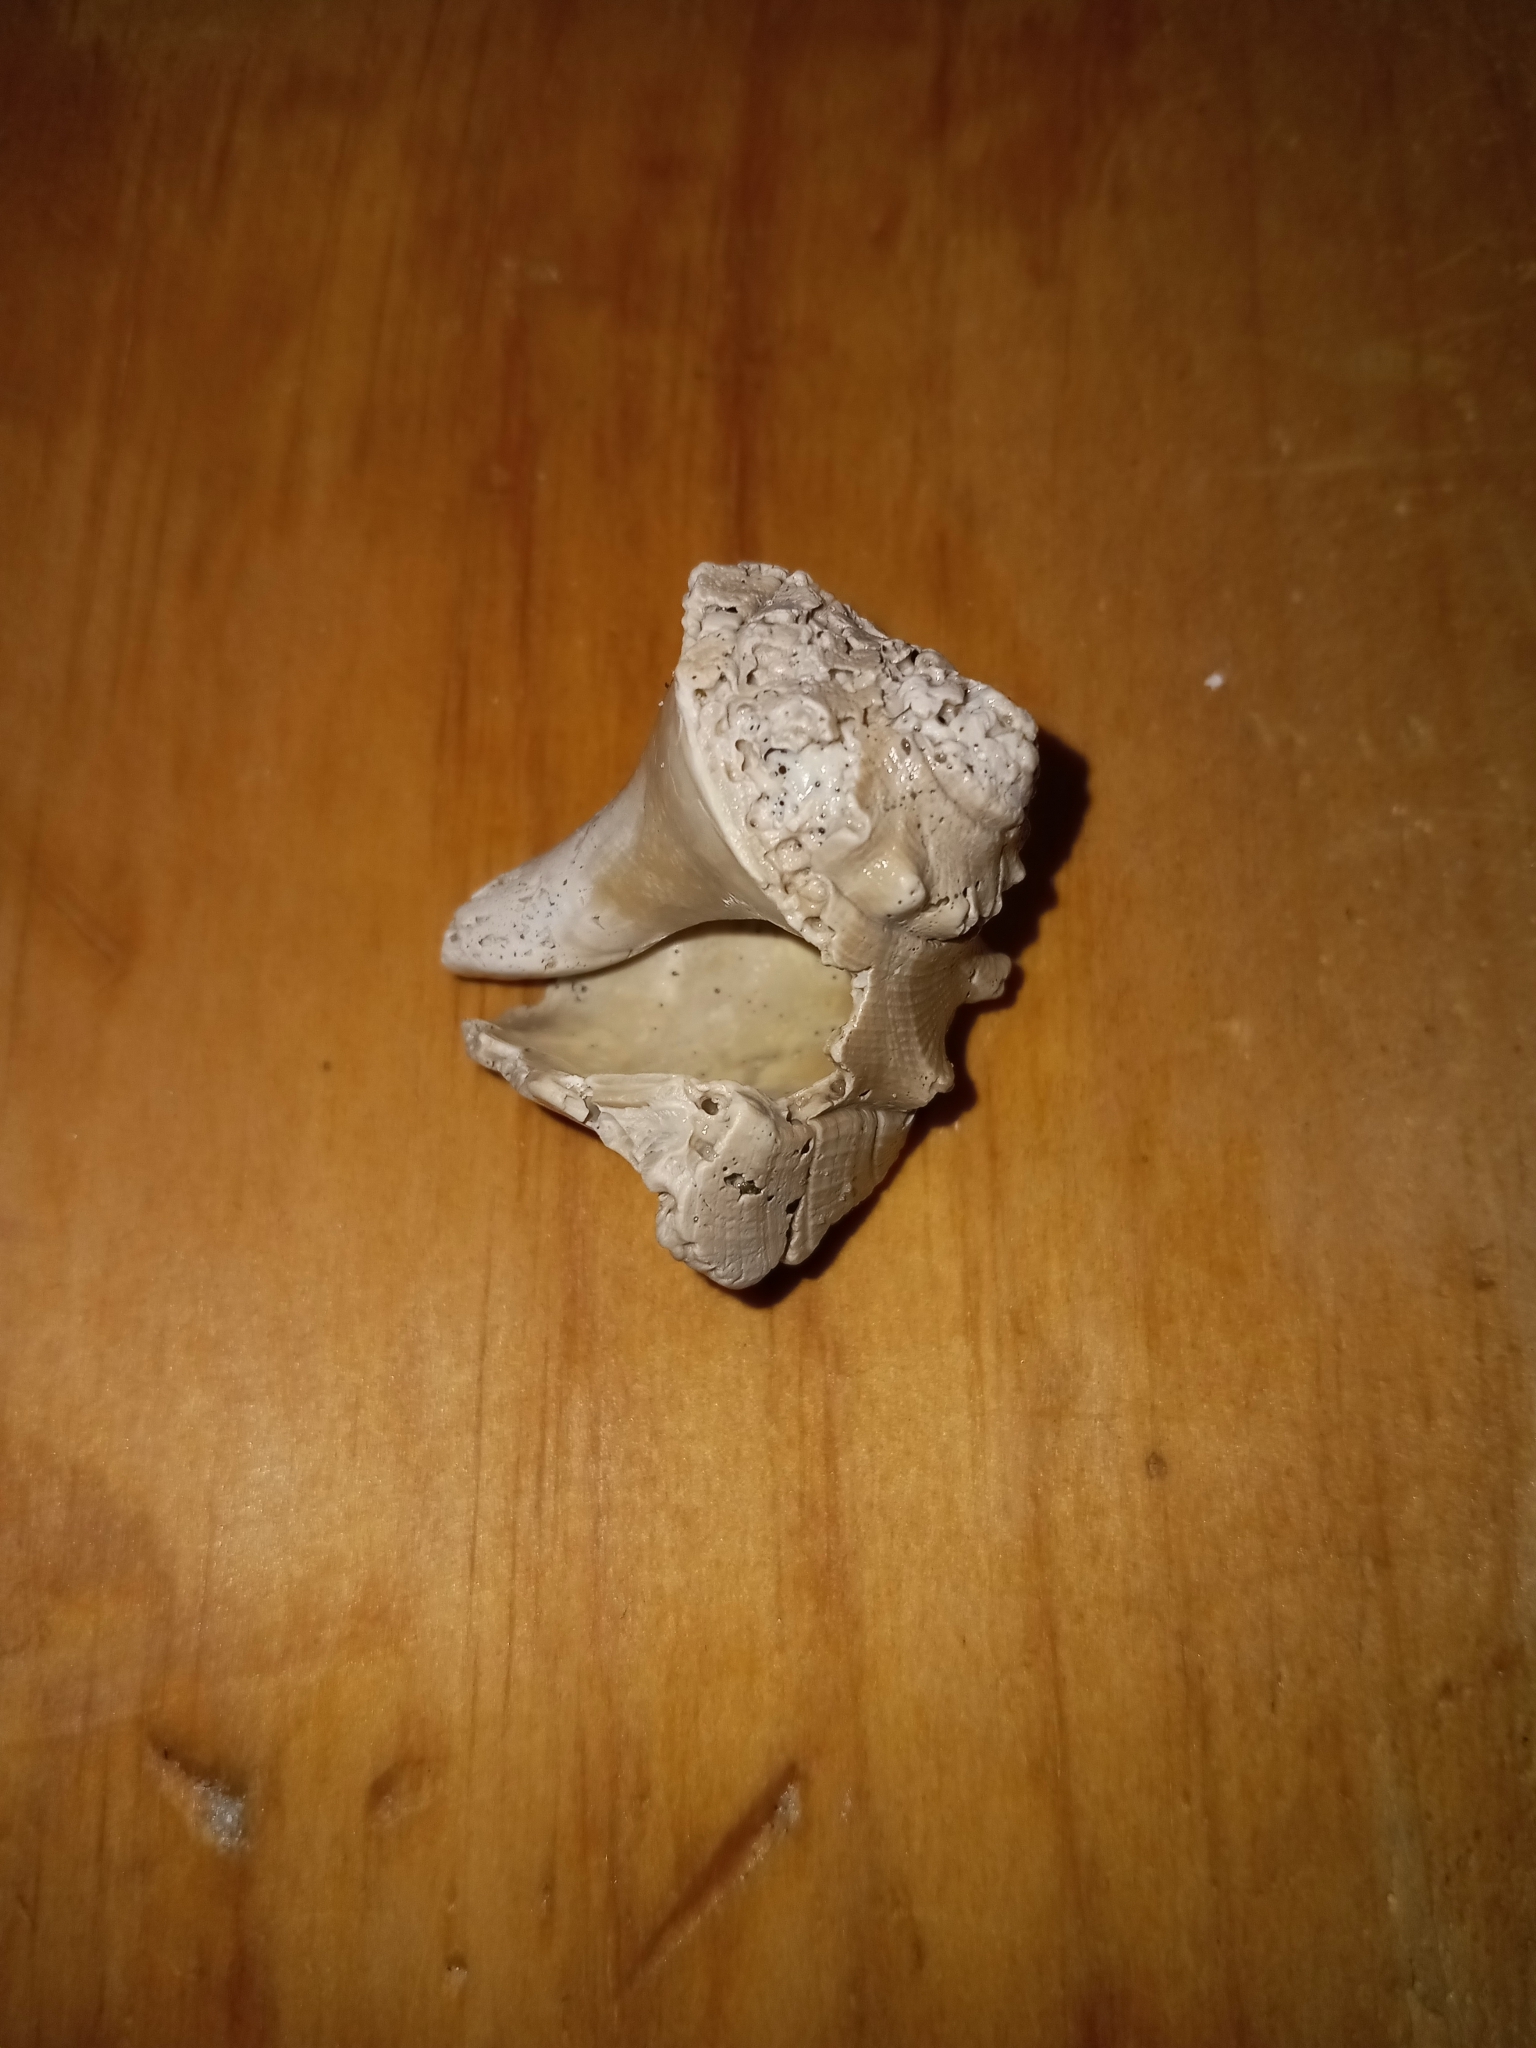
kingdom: Animalia
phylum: Mollusca
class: Gastropoda
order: Neogastropoda
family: Busyconidae
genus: Busycon
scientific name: Busycon carica
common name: Knobbed whelk
